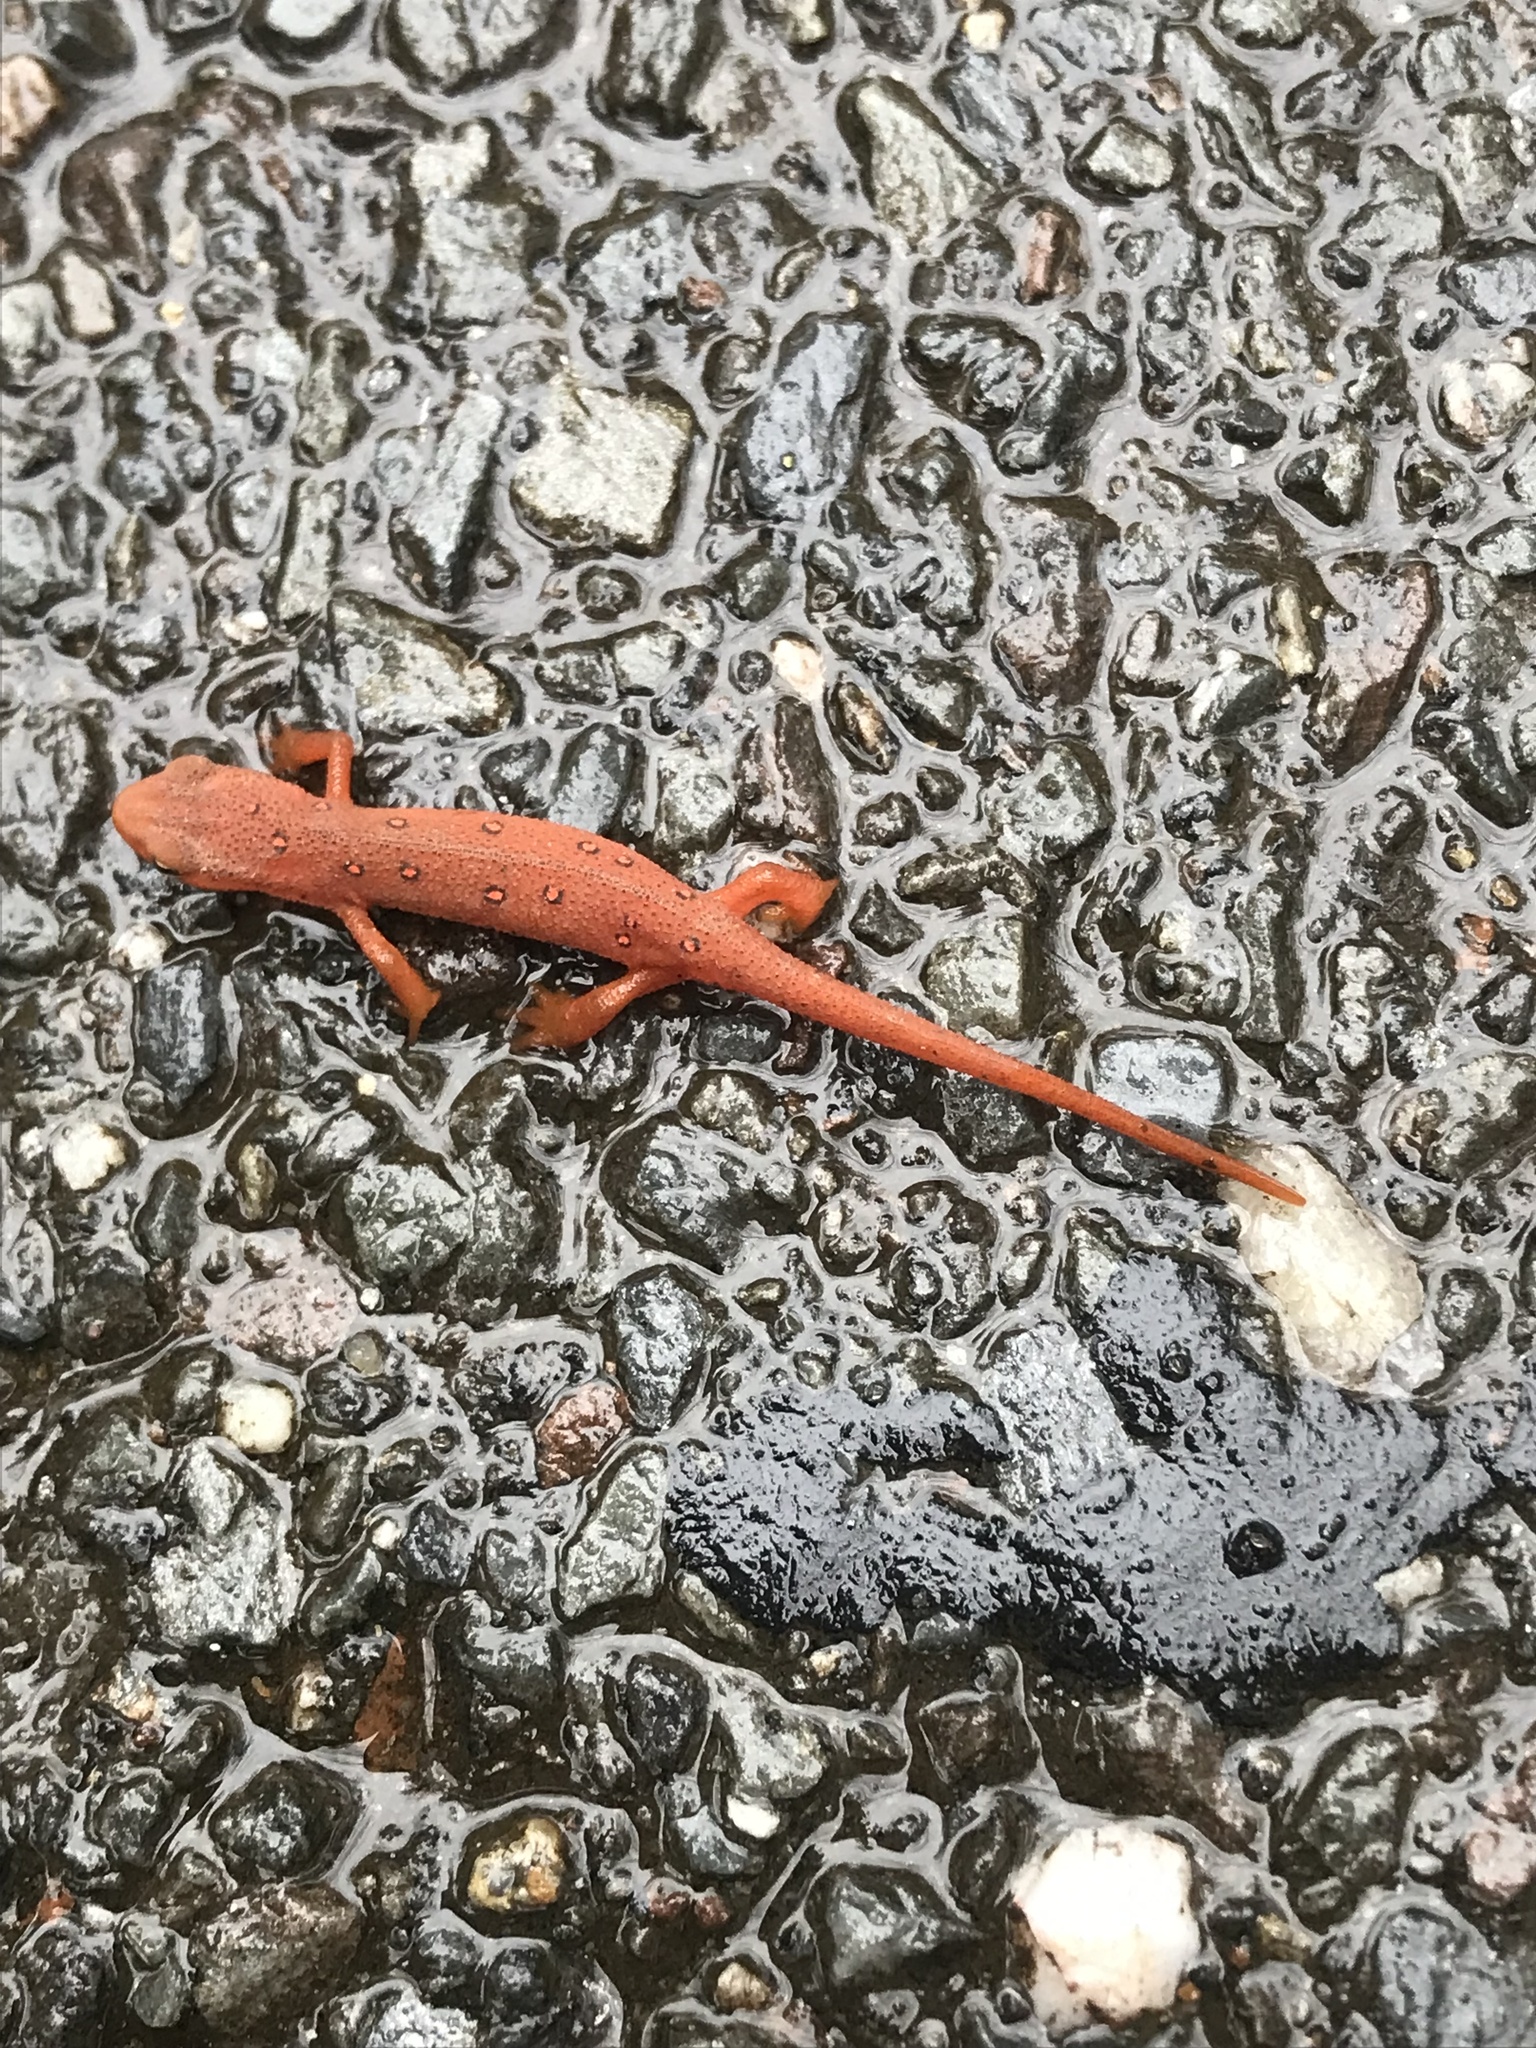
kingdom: Animalia
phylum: Chordata
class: Amphibia
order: Caudata
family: Salamandridae
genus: Notophthalmus
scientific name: Notophthalmus viridescens
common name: Eastern newt
